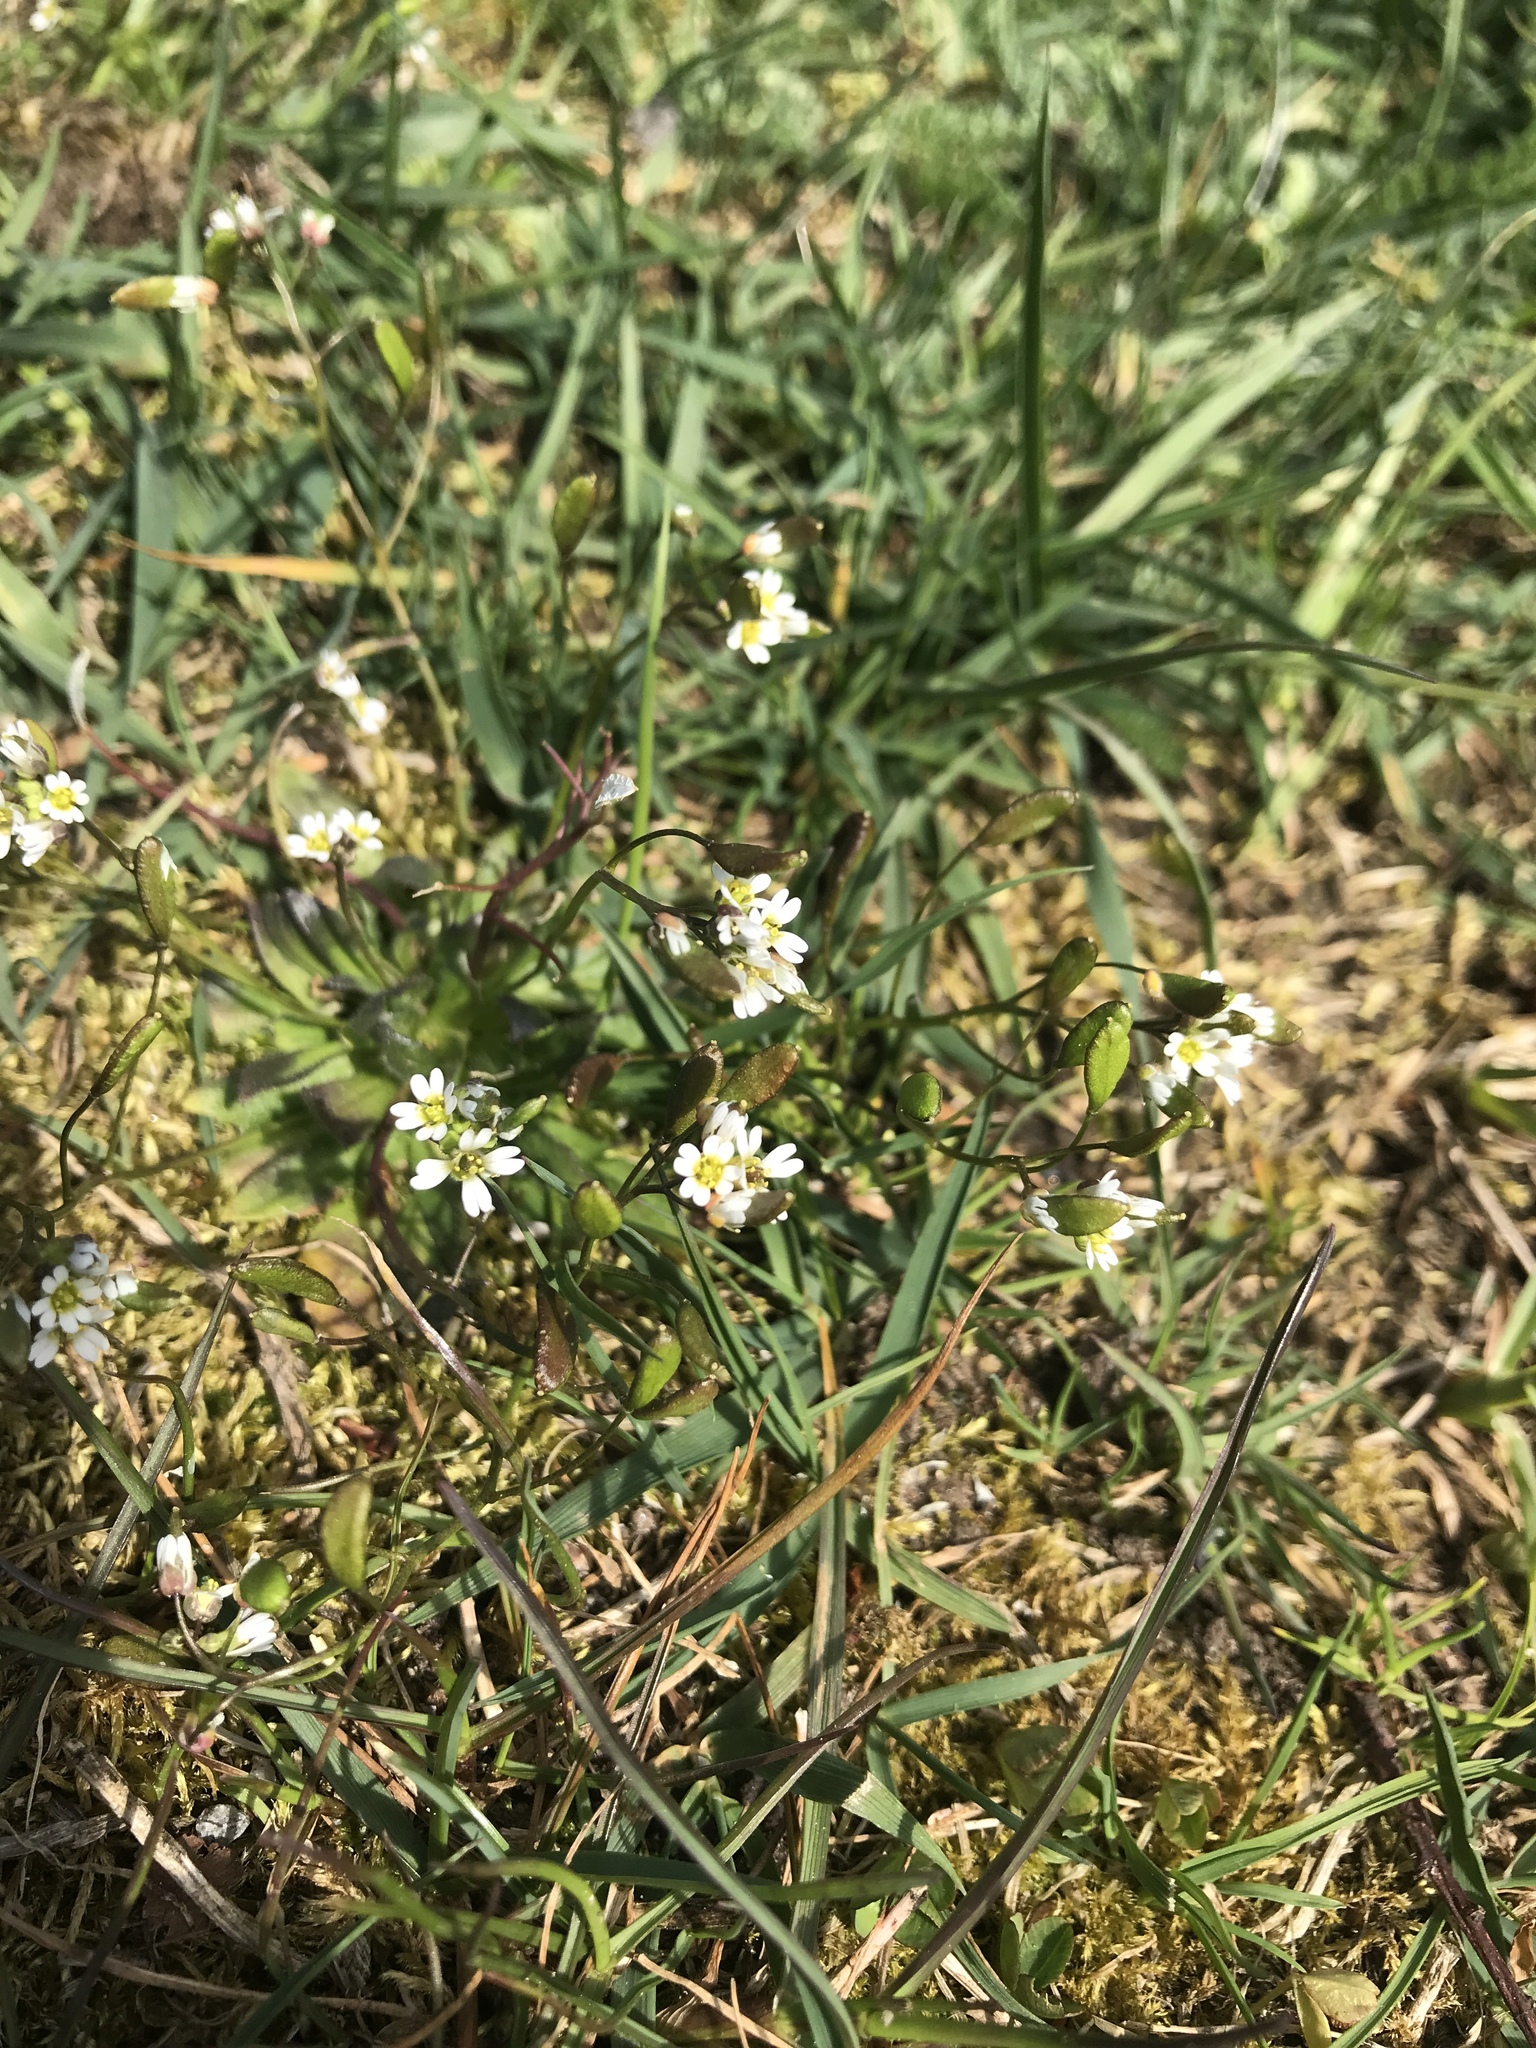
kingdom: Plantae
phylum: Tracheophyta
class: Magnoliopsida
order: Brassicales
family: Brassicaceae
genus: Draba
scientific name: Draba verna
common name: Spring draba
